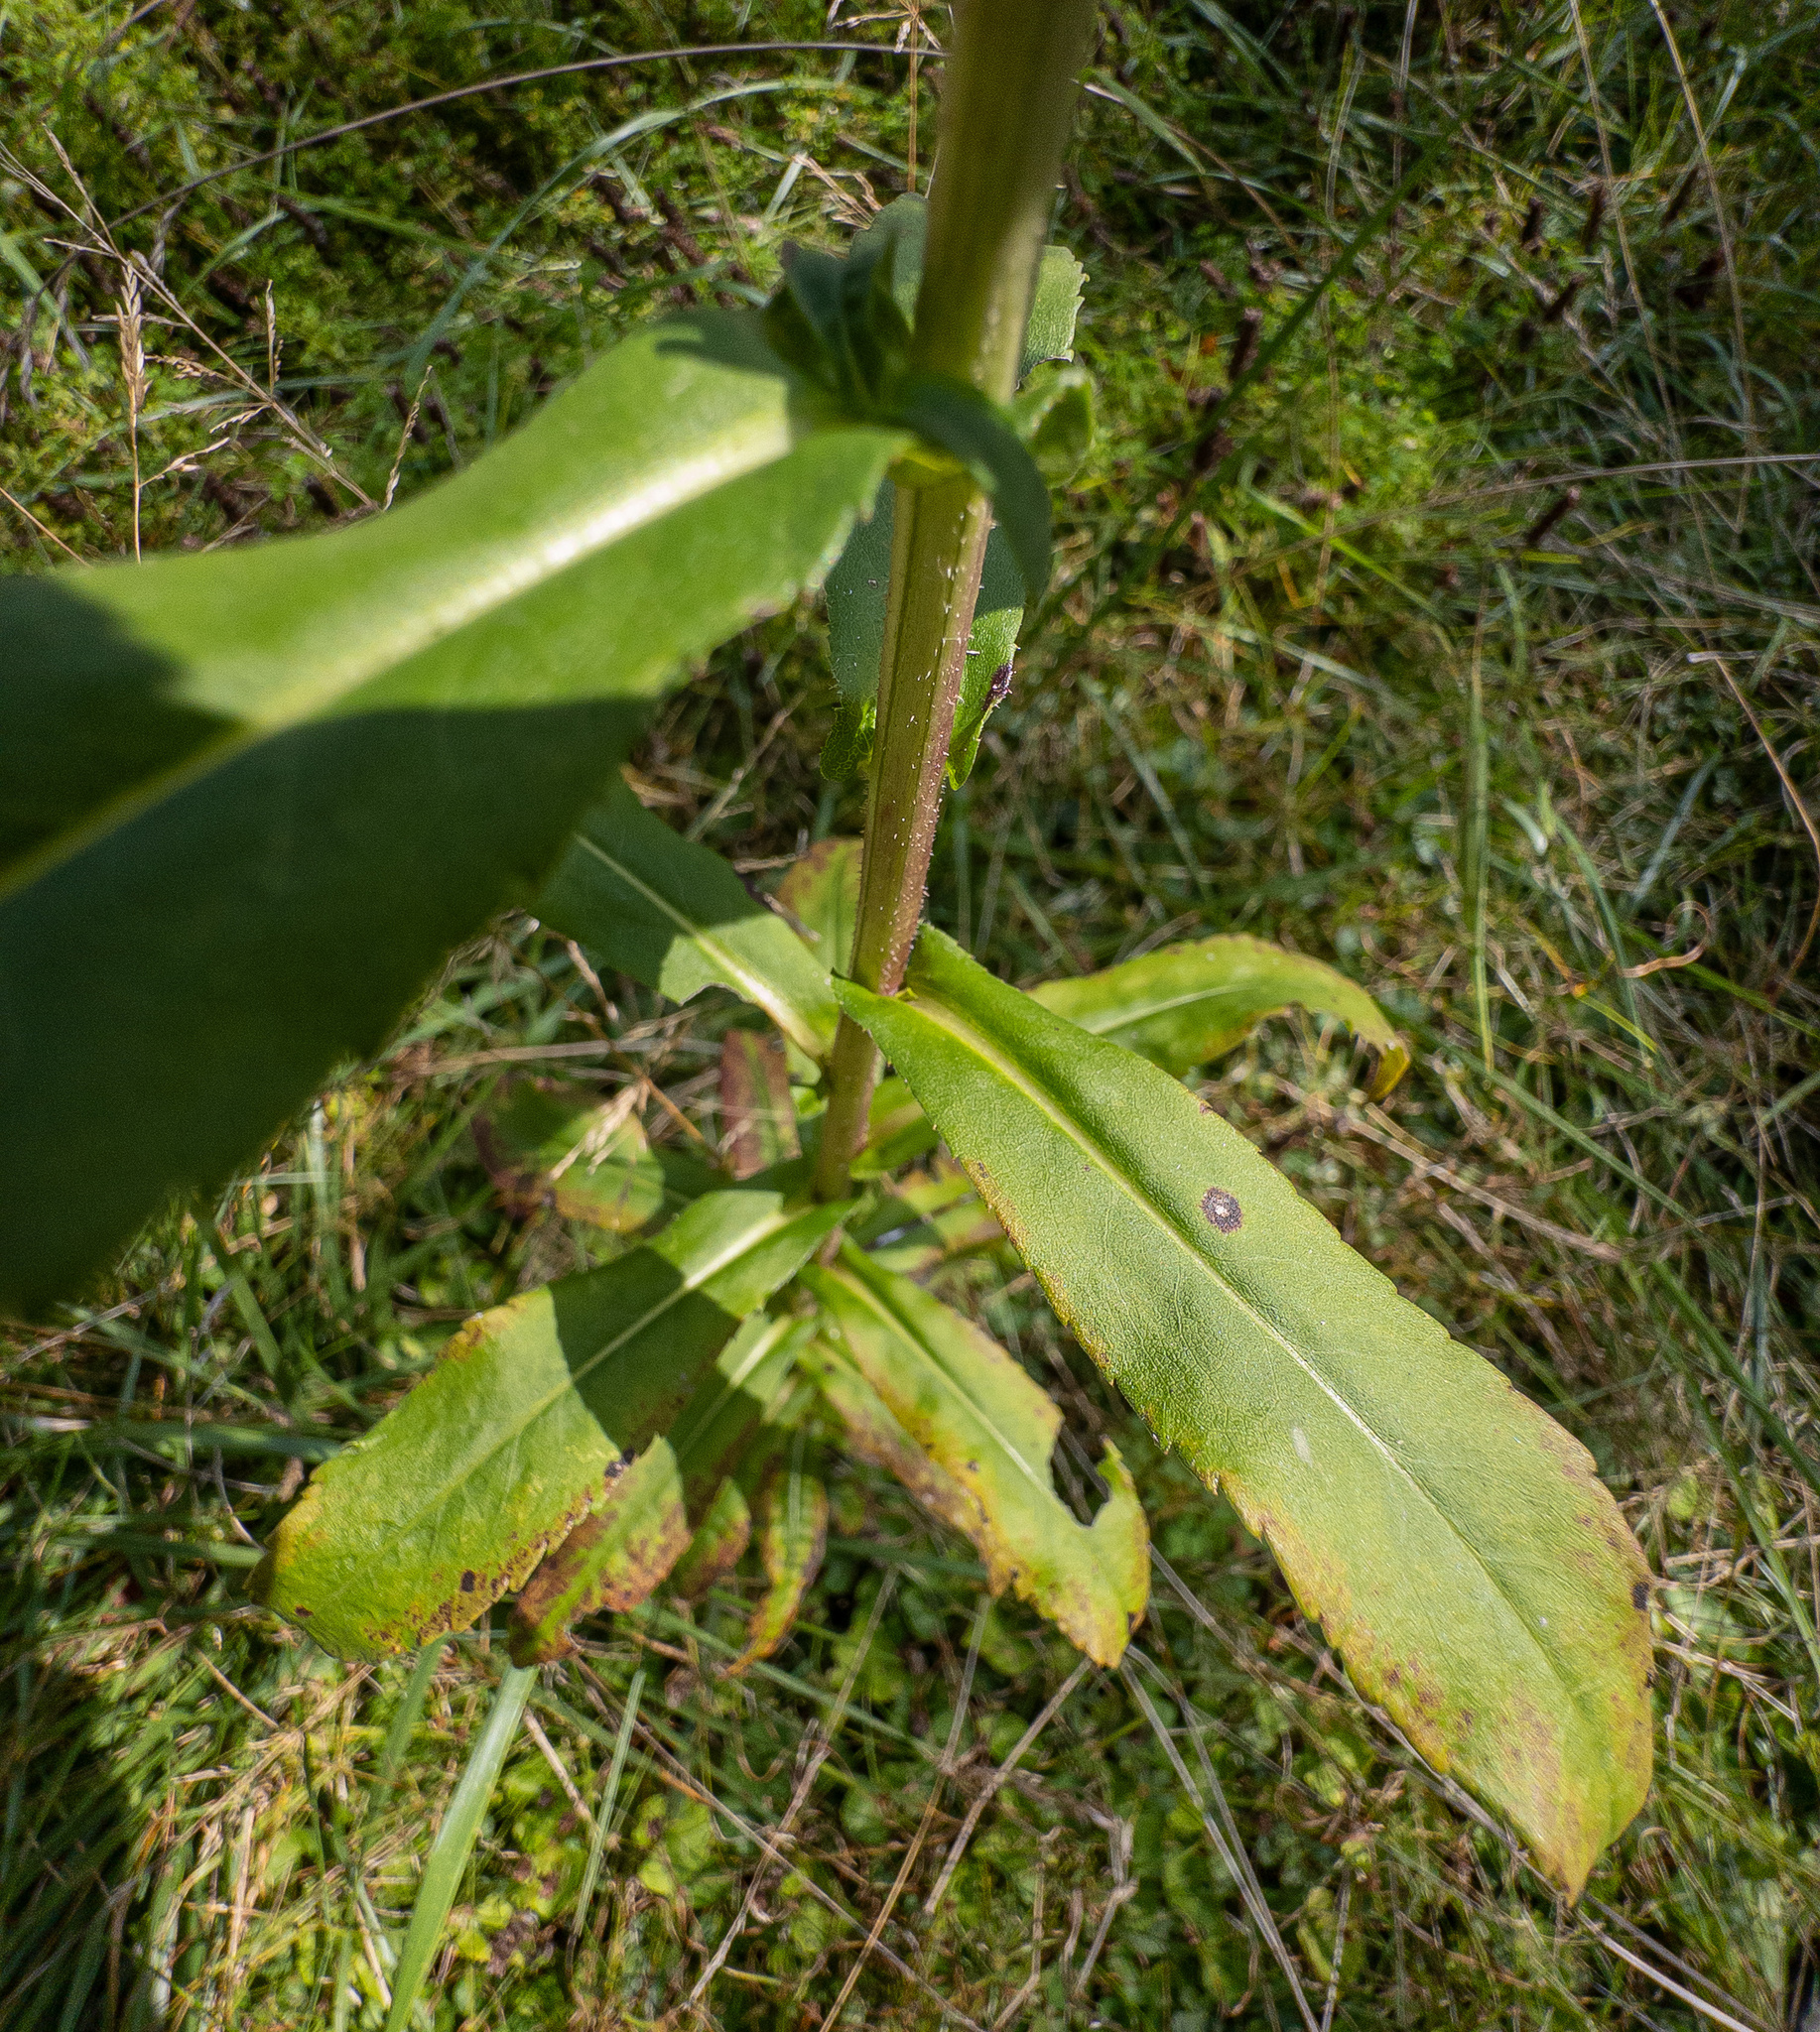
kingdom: Plantae
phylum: Tracheophyta
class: Magnoliopsida
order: Asterales
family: Asteraceae
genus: Symphyotrichum
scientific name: Symphyotrichum puniceum
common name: Bog aster
